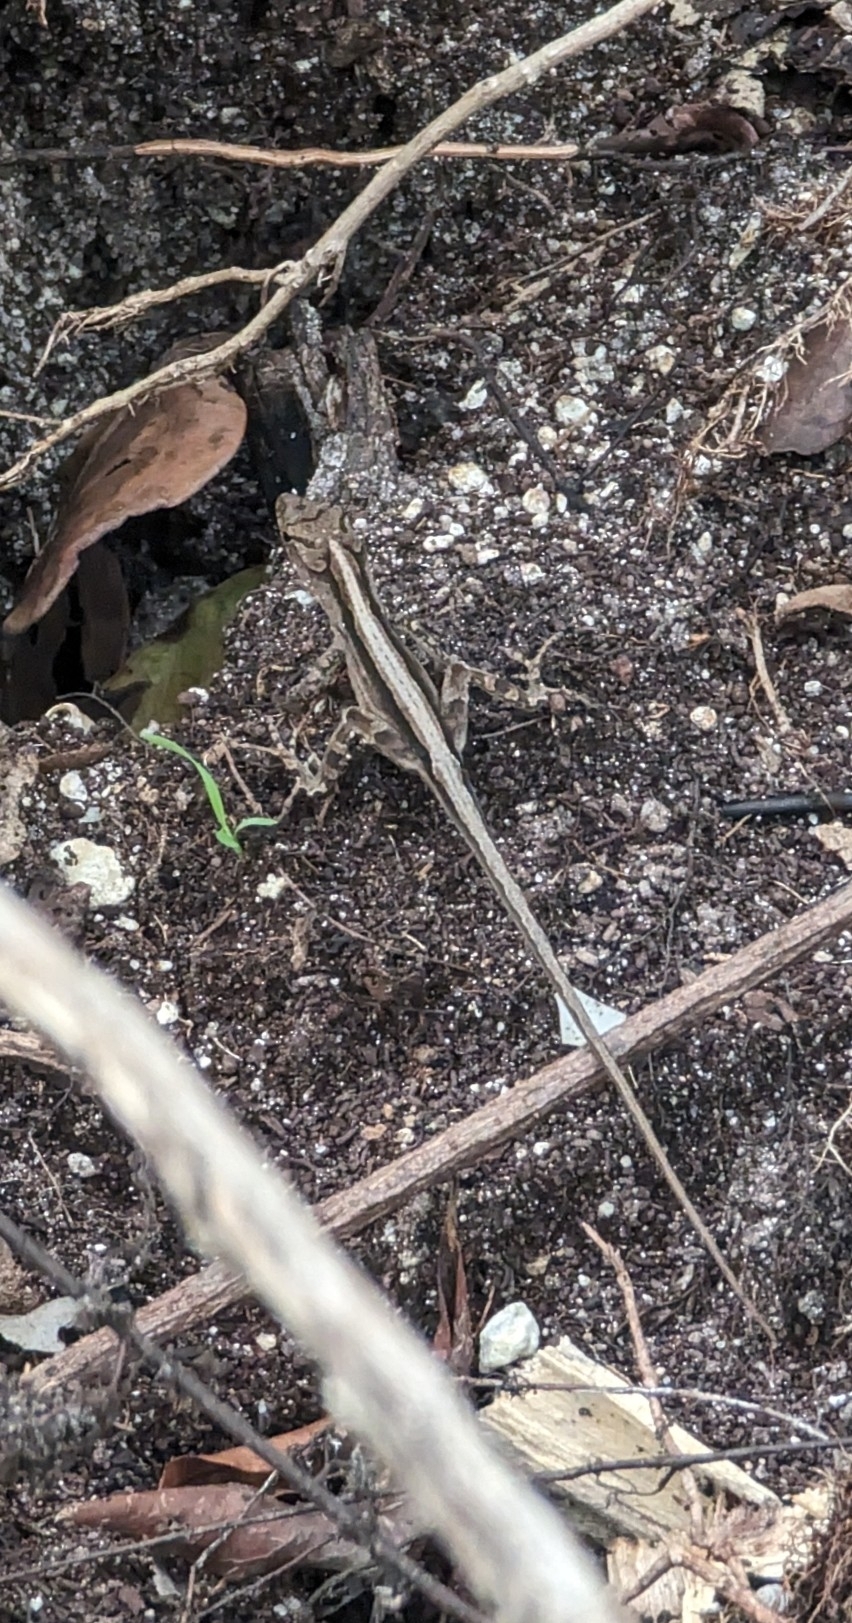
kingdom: Animalia
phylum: Chordata
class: Squamata
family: Dactyloidae
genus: Anolis
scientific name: Anolis sagrei
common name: Brown anole
